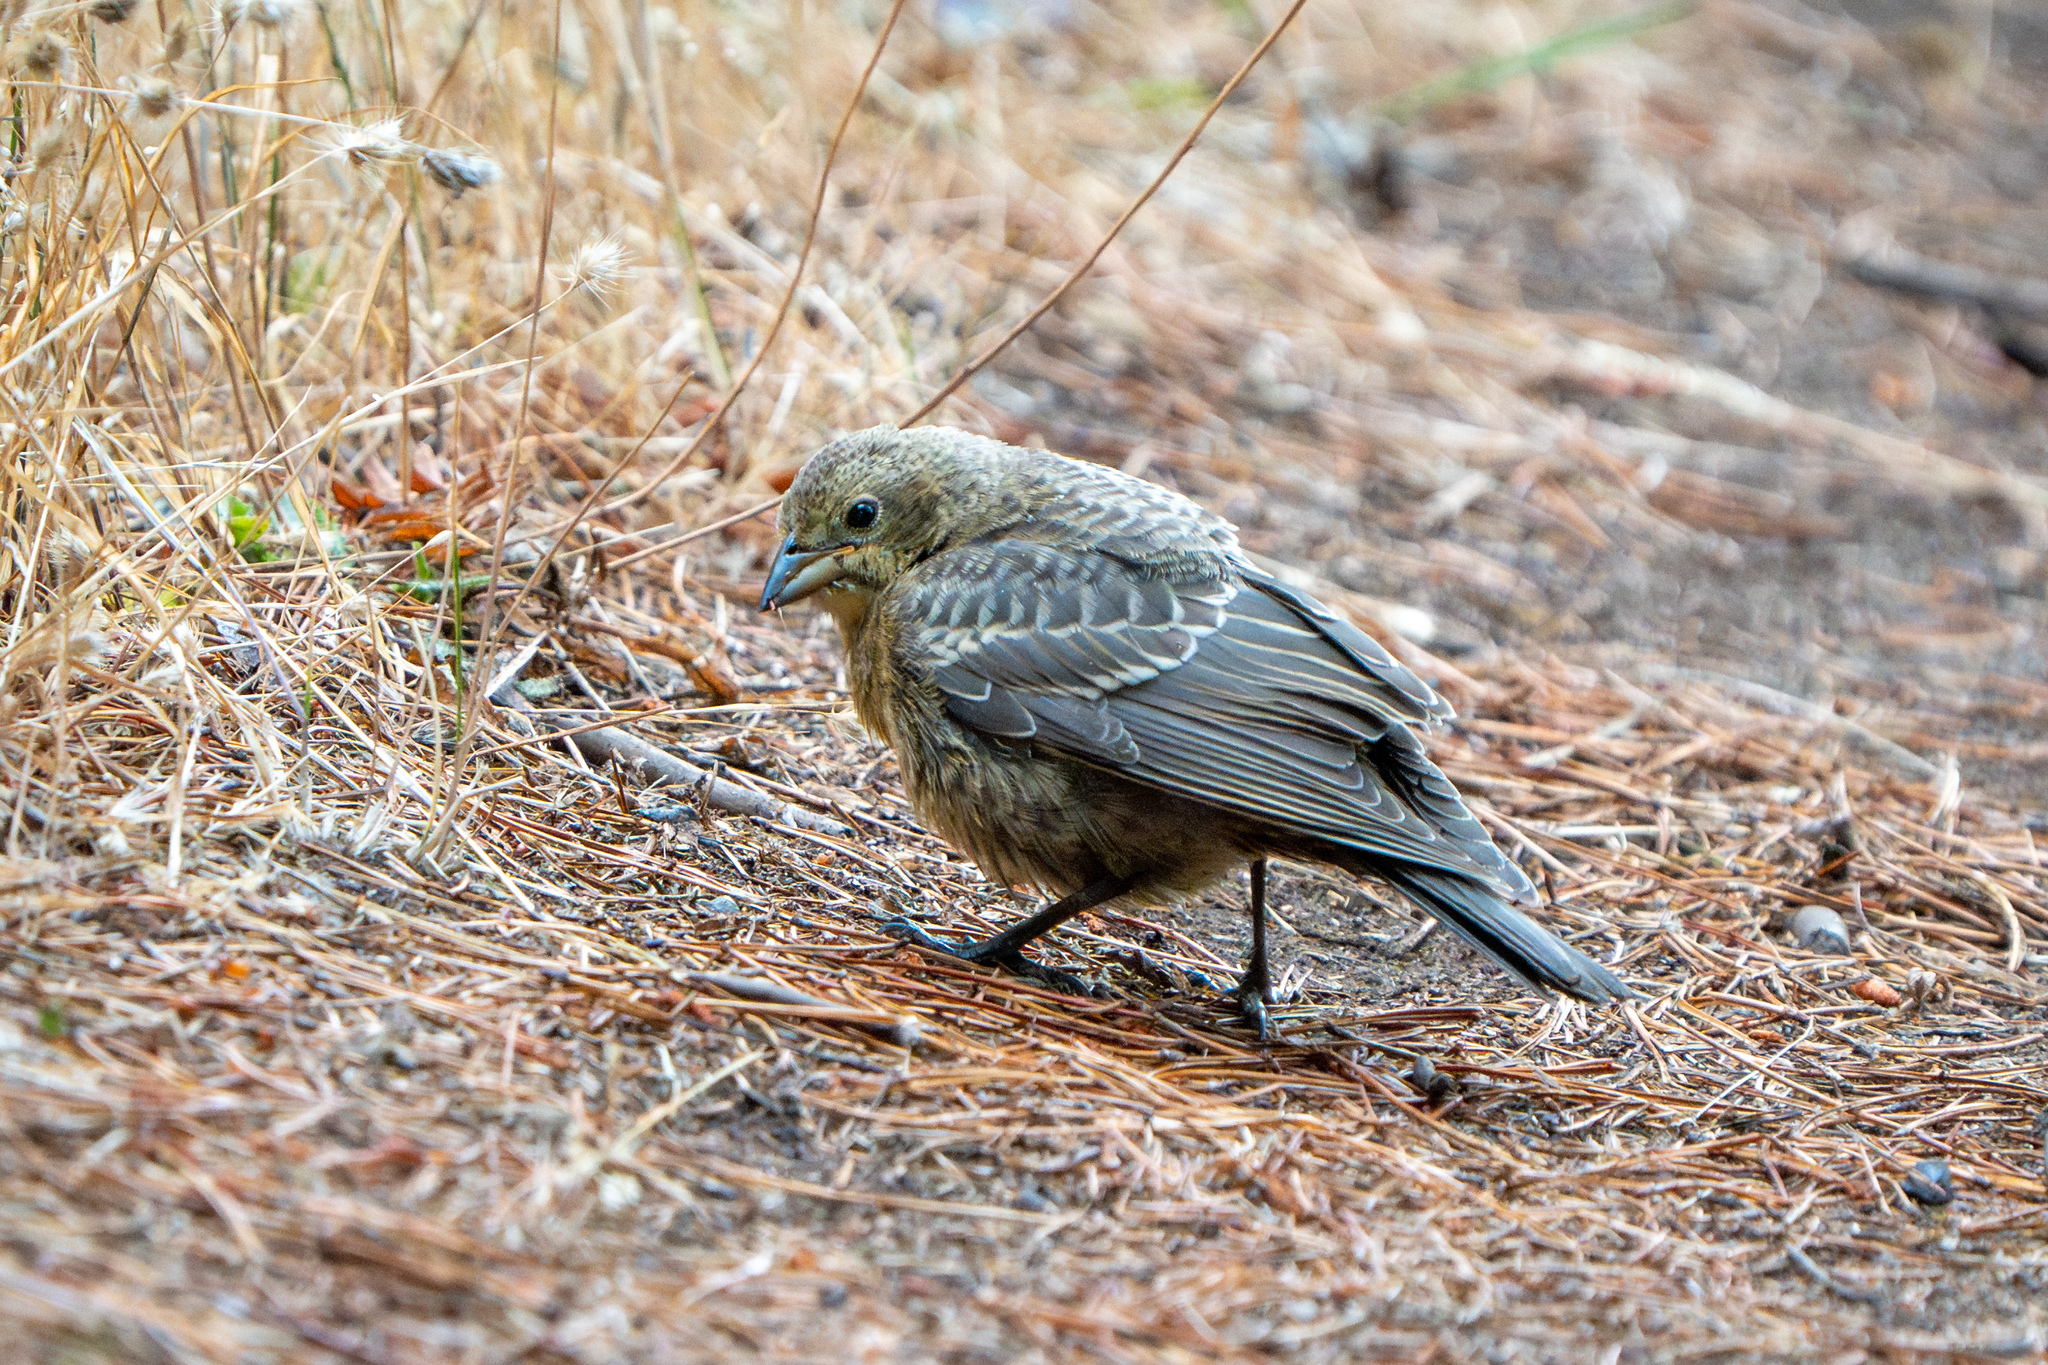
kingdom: Animalia
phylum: Chordata
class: Aves
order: Passeriformes
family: Icteridae
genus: Molothrus
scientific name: Molothrus ater
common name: Brown-headed cowbird
